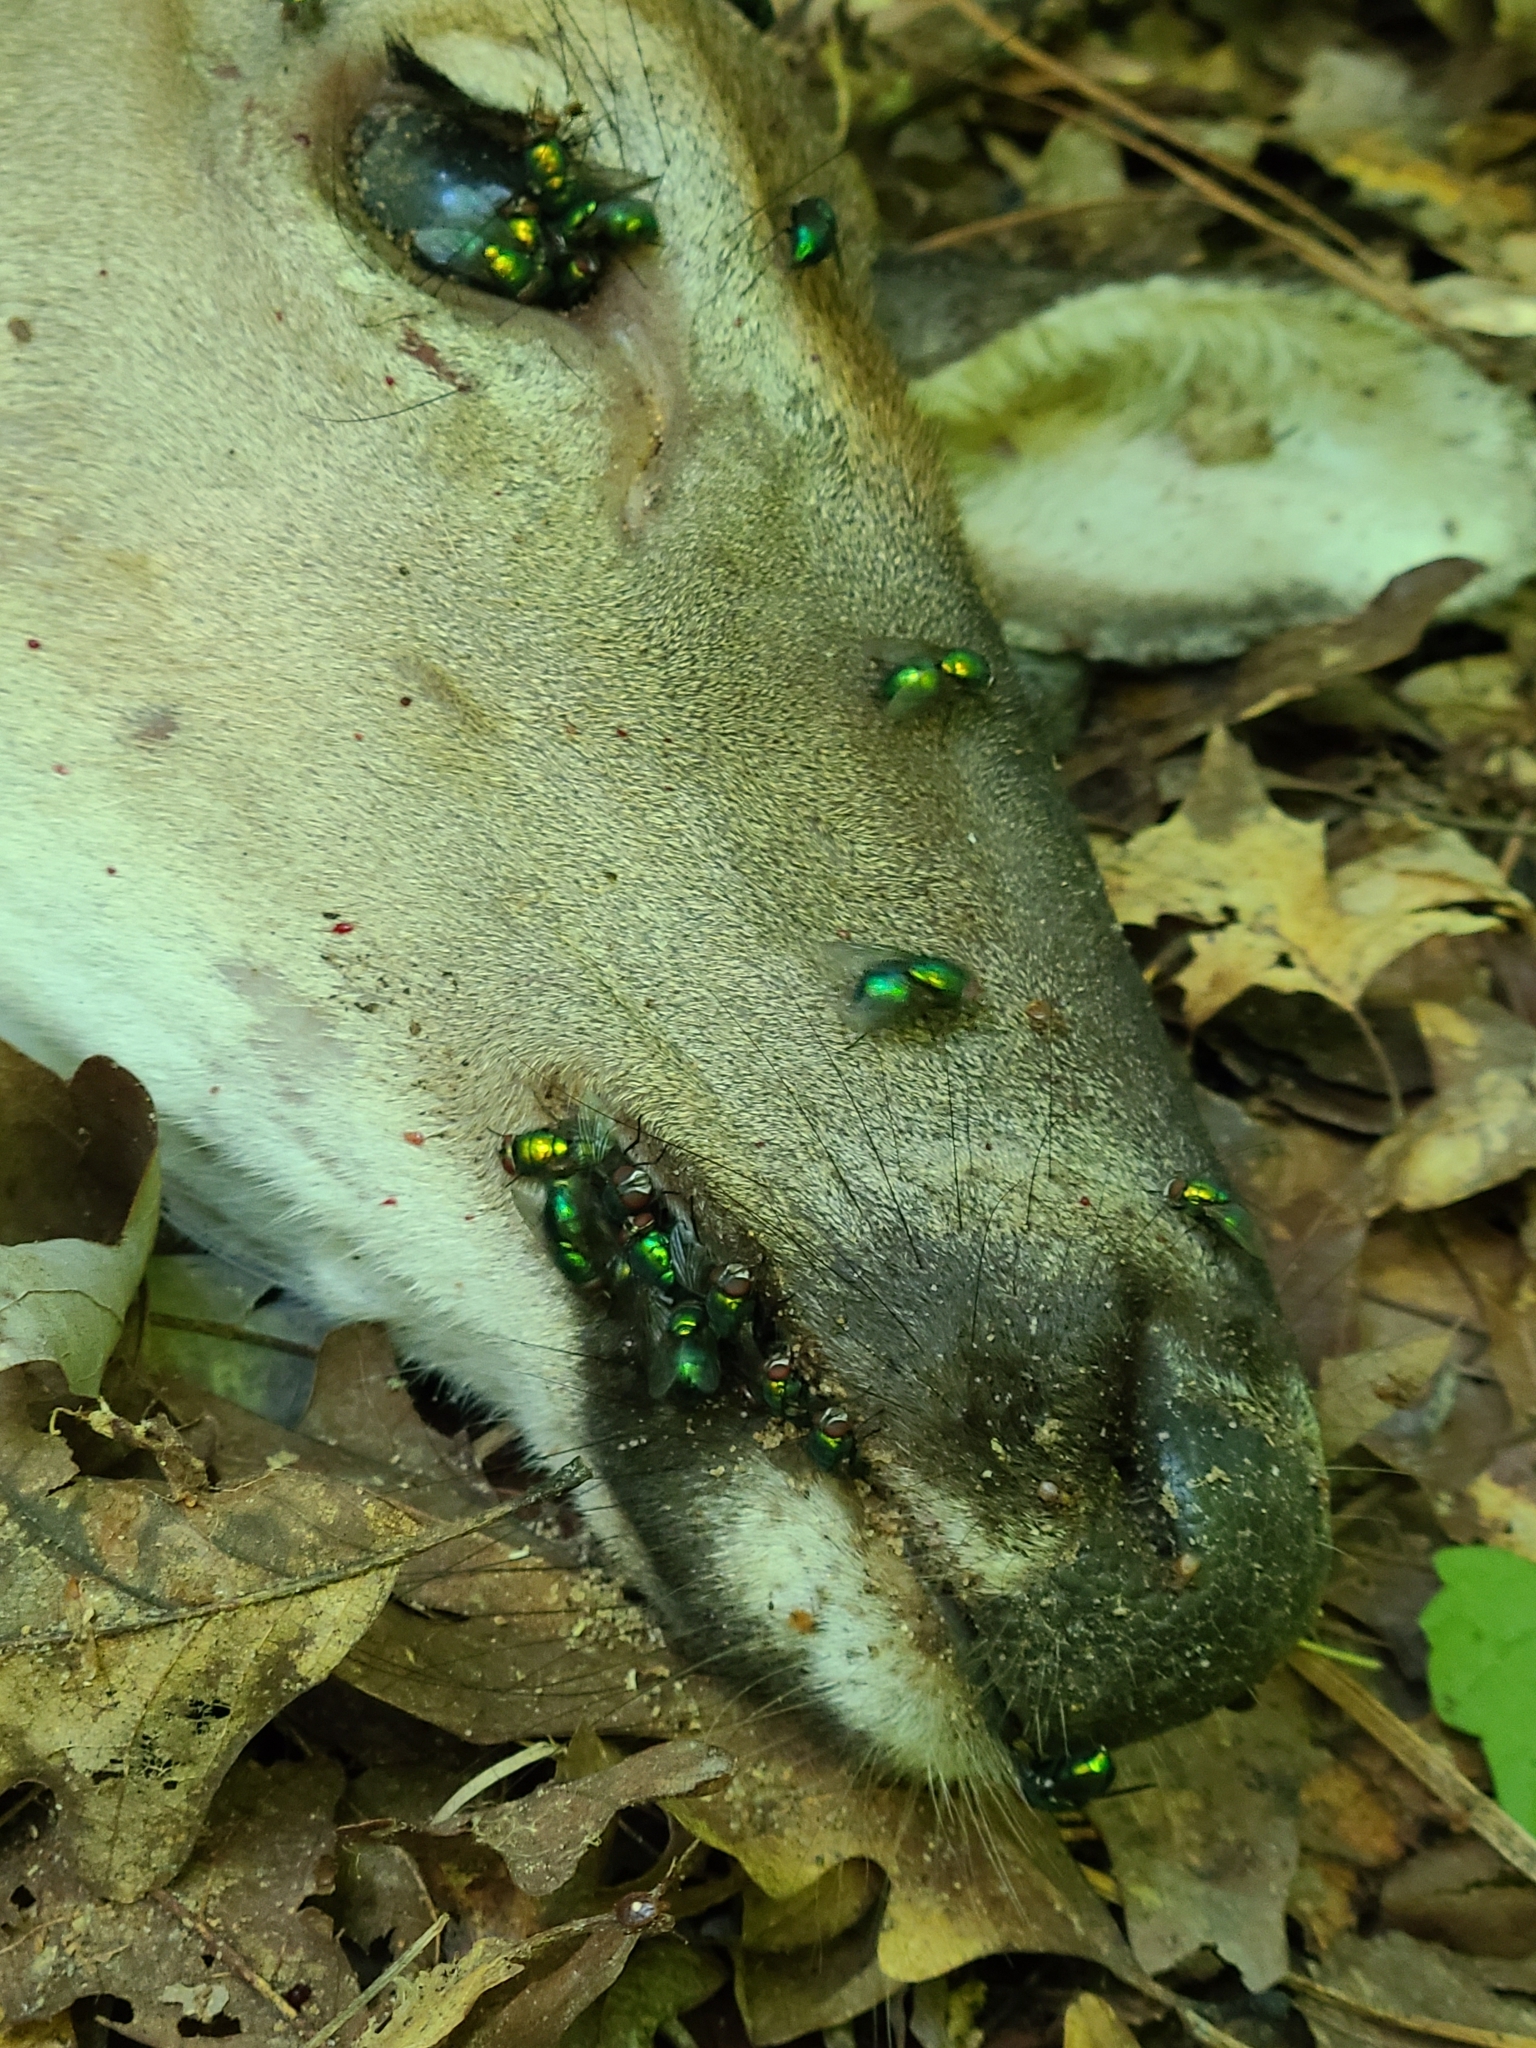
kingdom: Animalia
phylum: Chordata
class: Mammalia
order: Artiodactyla
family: Cervidae
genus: Odocoileus
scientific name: Odocoileus virginianus
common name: White-tailed deer
